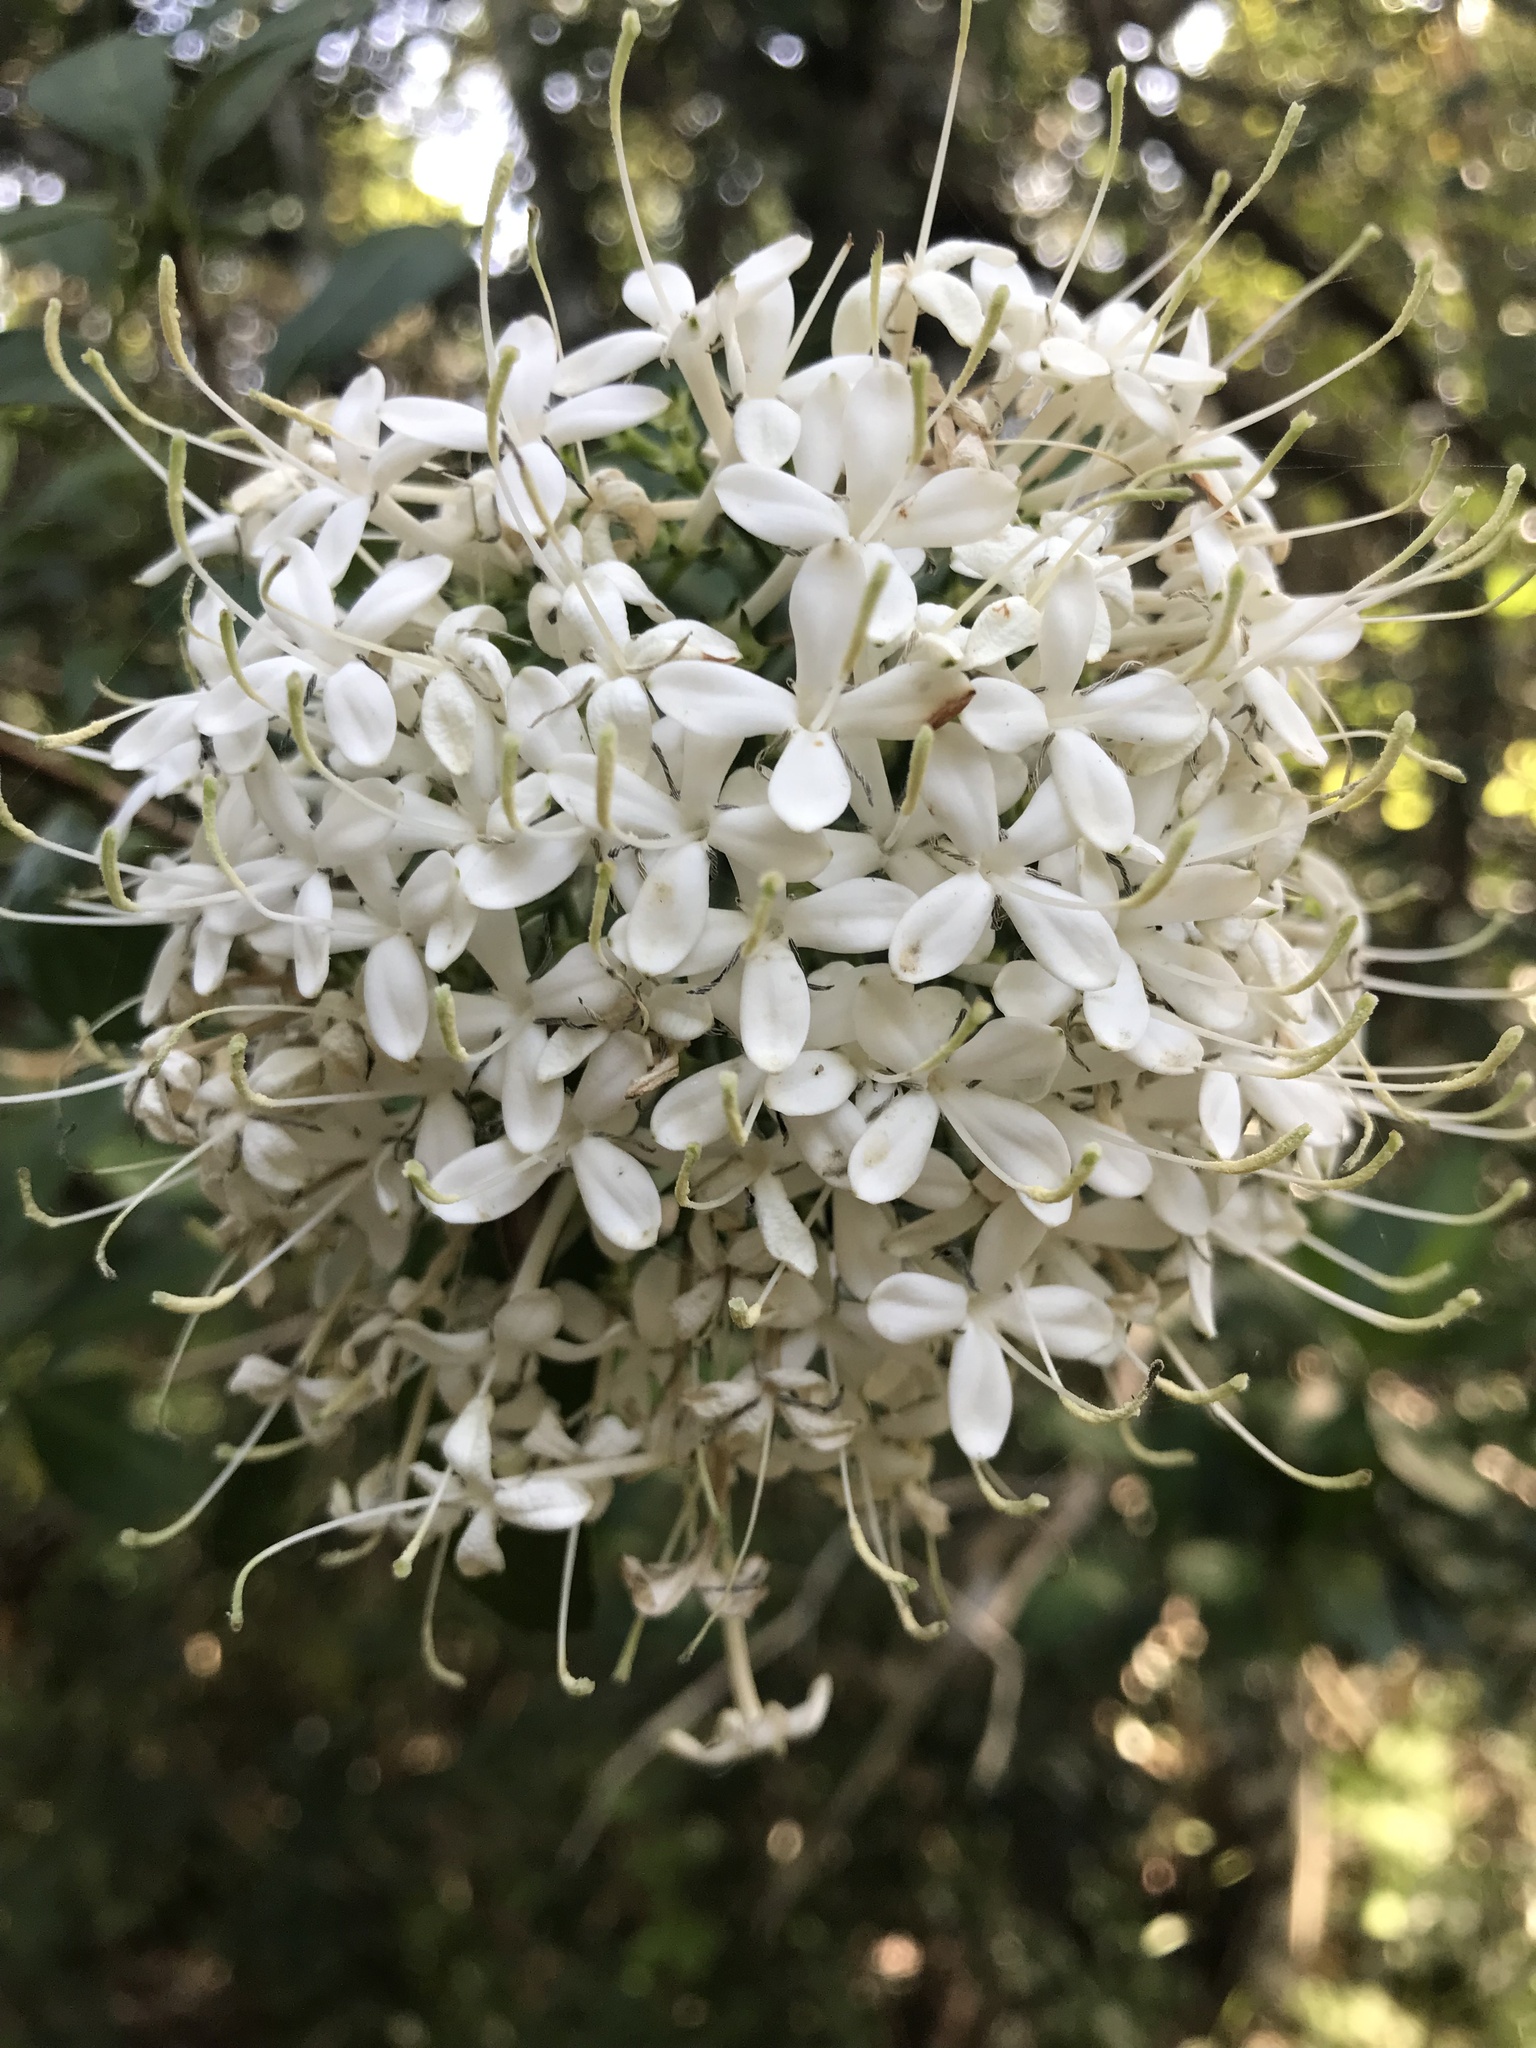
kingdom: Plantae
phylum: Tracheophyta
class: Magnoliopsida
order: Gentianales
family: Rubiaceae
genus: Pavetta
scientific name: Pavetta revoluta
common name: Dune brides-bush
